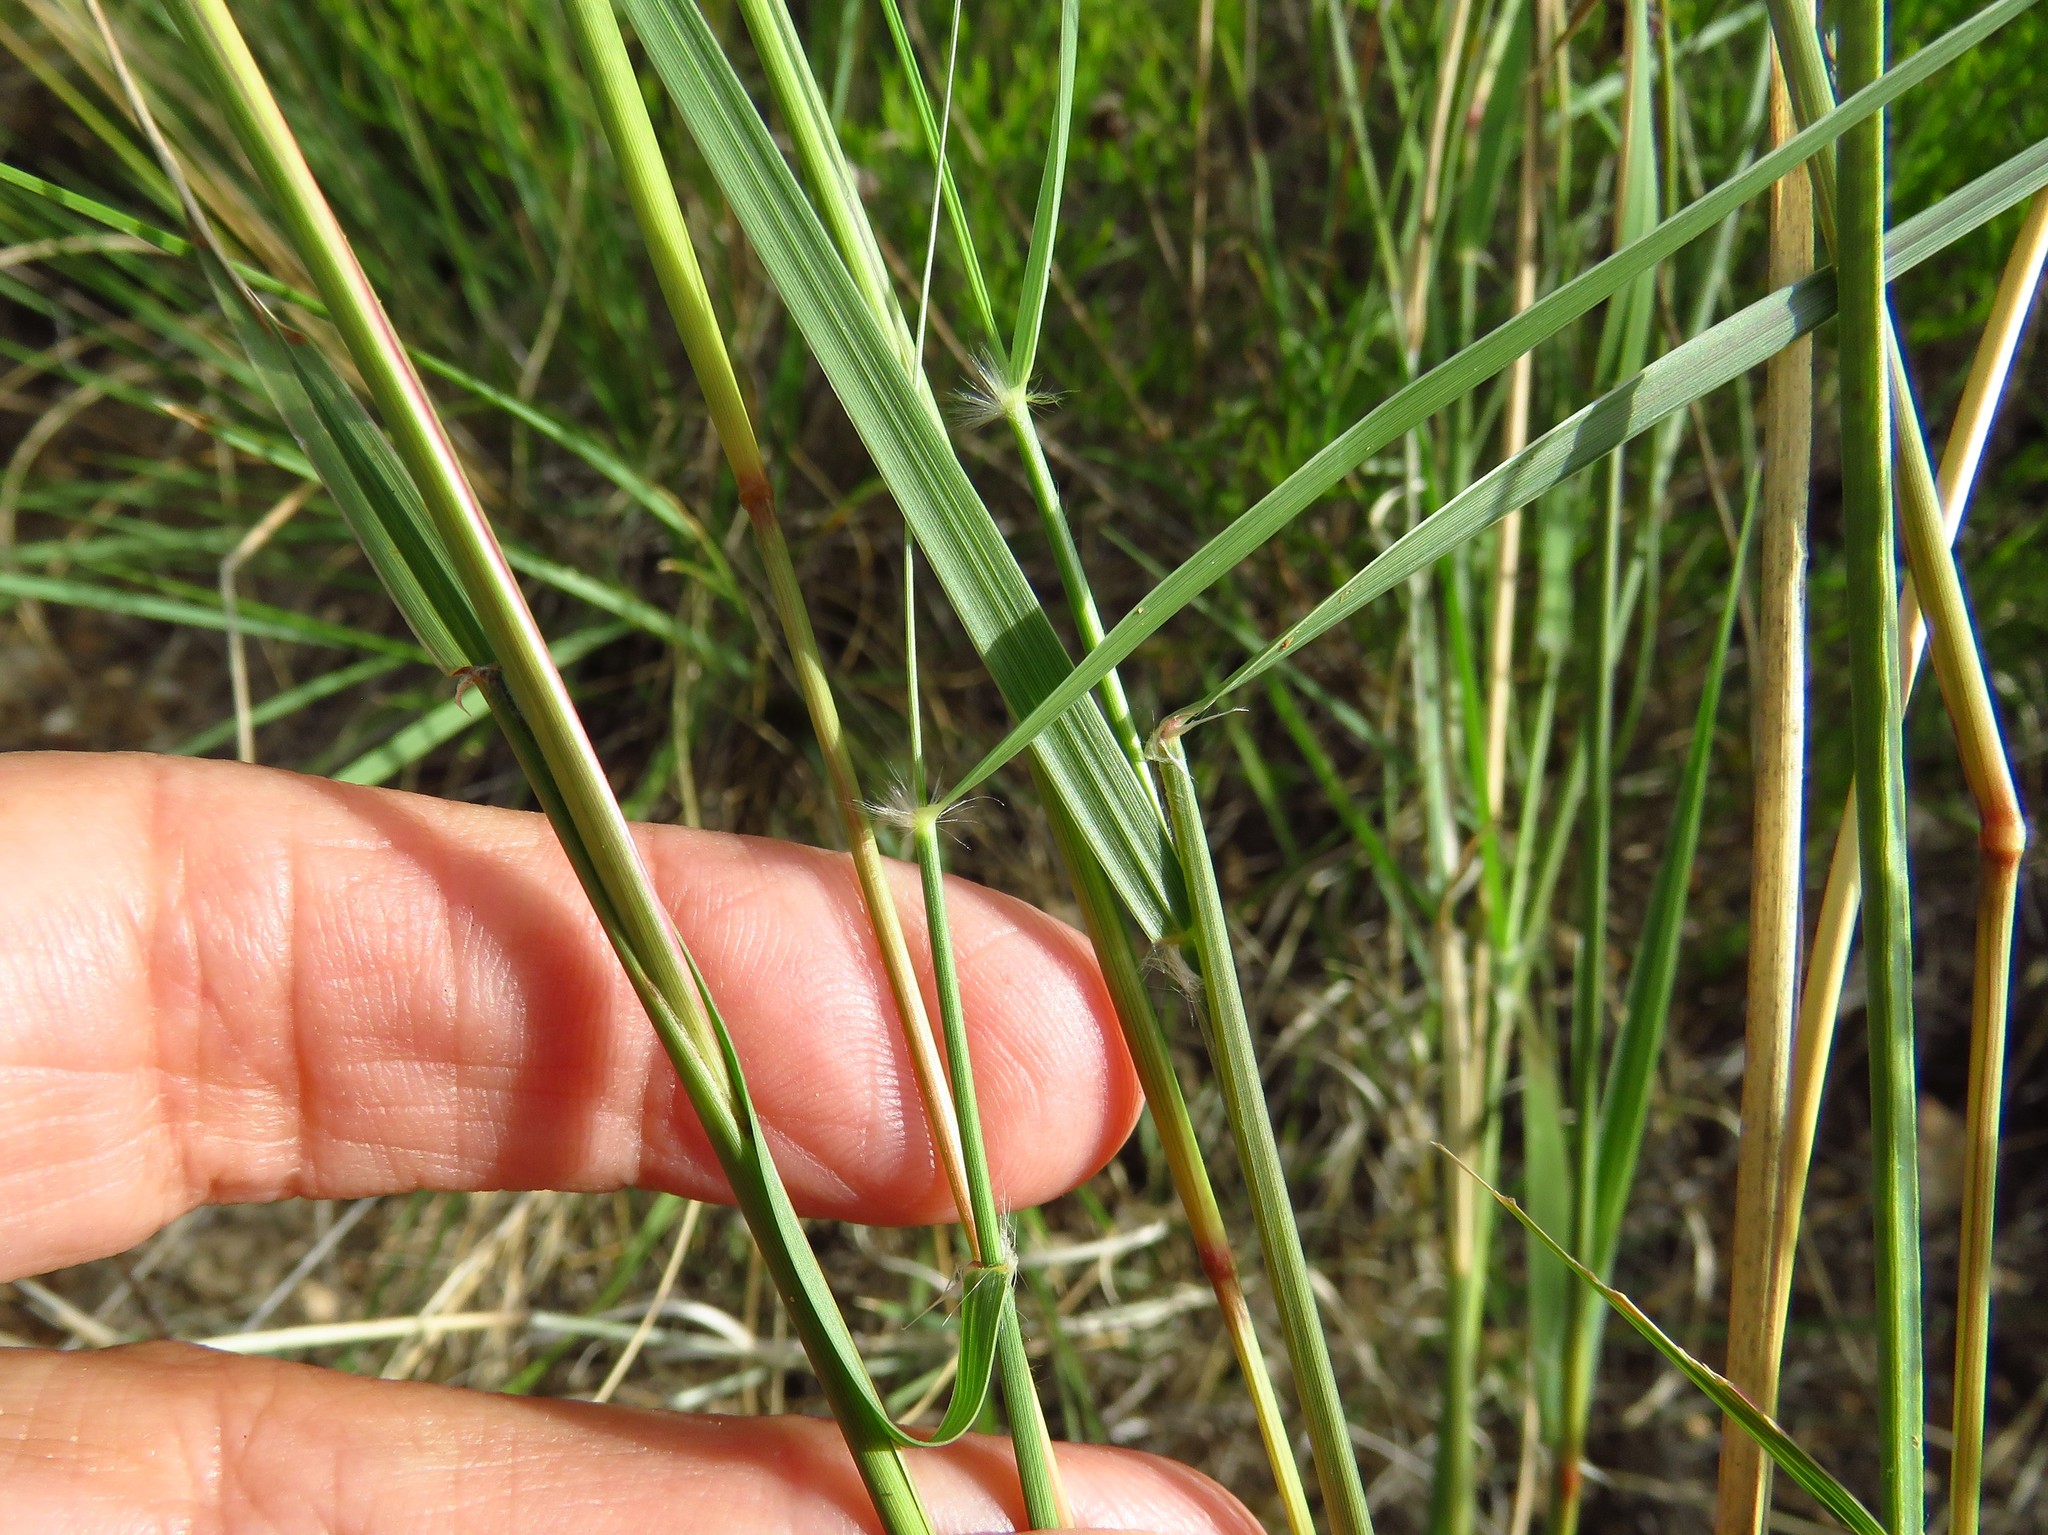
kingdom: Plantae
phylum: Tracheophyta
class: Liliopsida
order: Poales
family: Poaceae
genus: Sporobolus
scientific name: Sporobolus cryptandrus
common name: Sand dropseed
